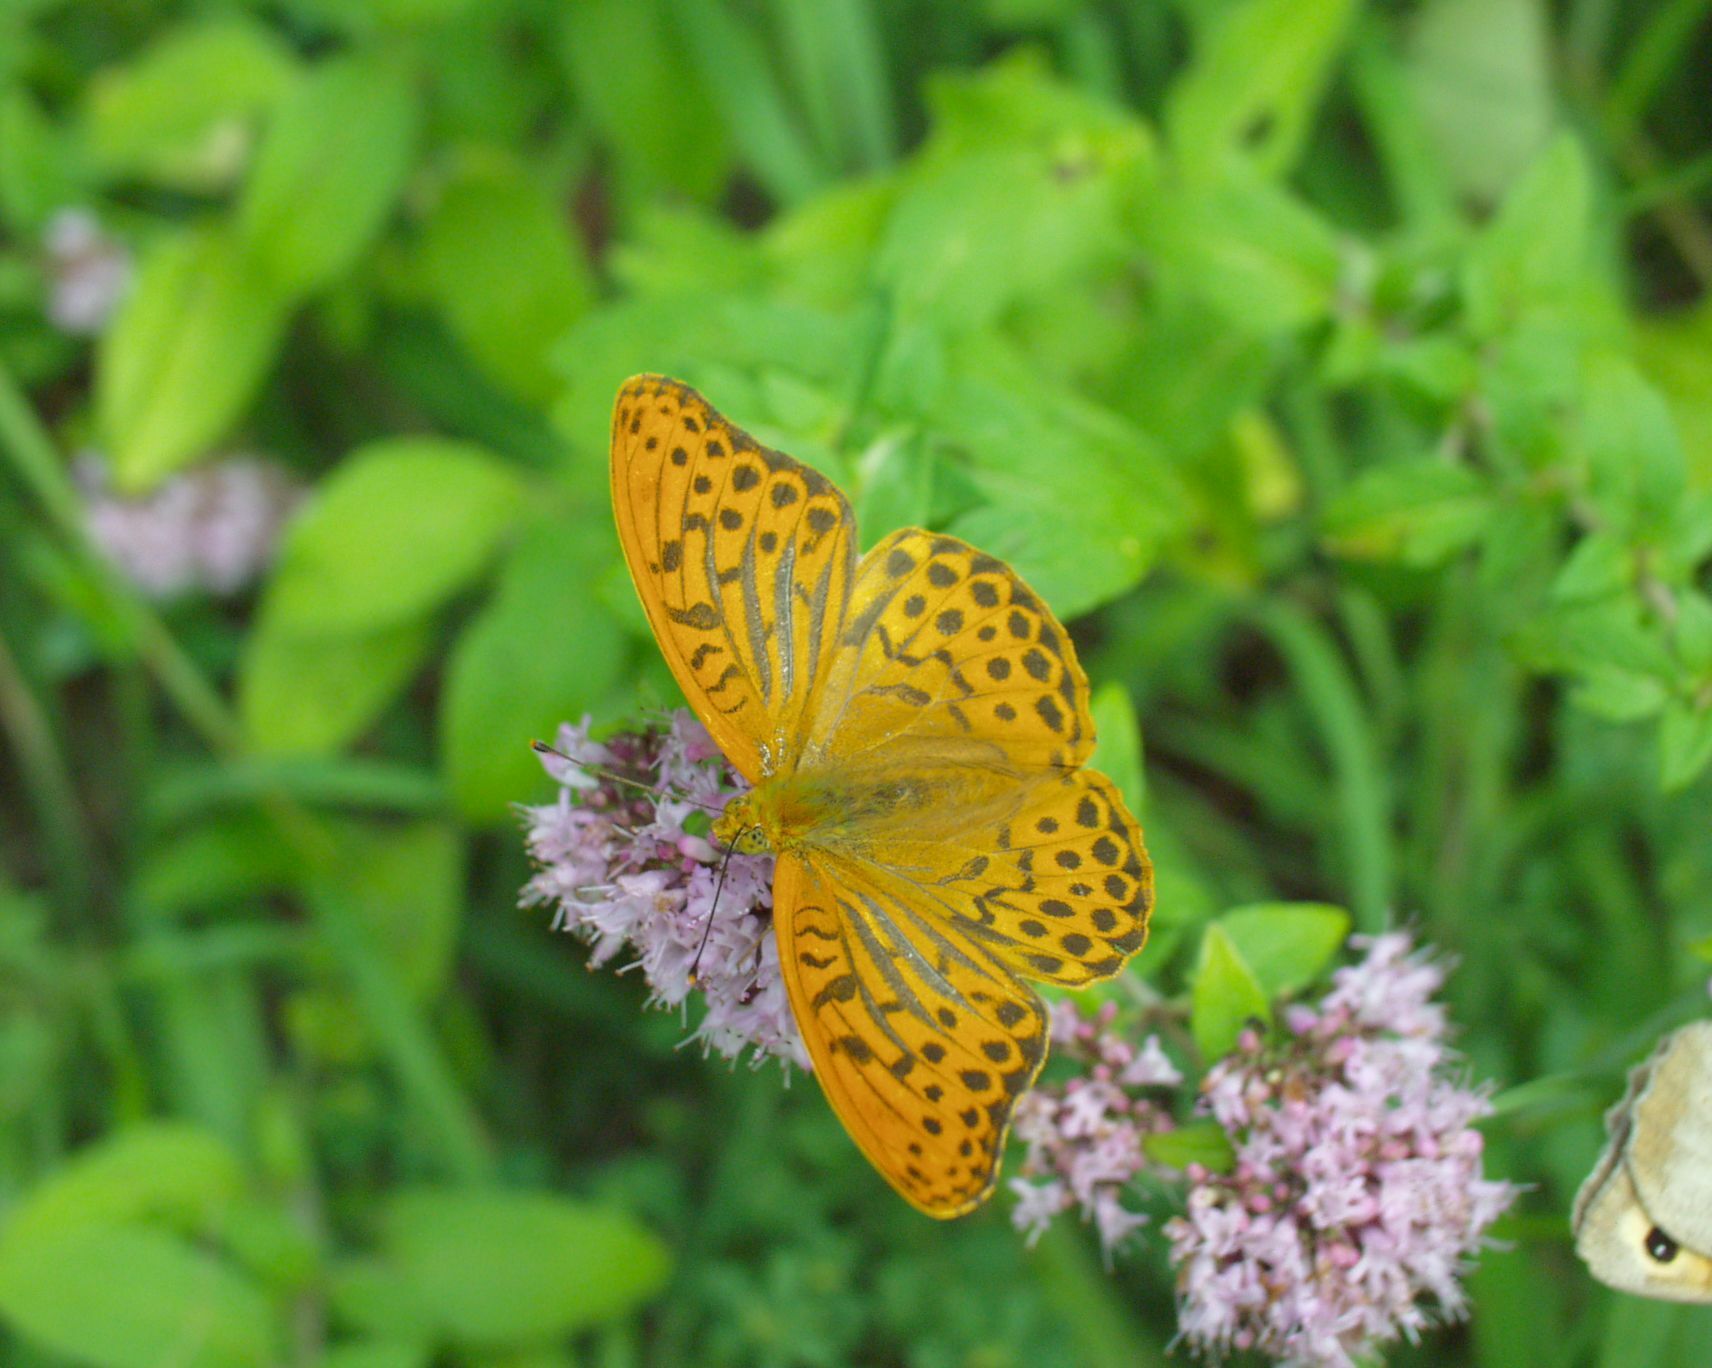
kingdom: Animalia
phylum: Arthropoda
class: Insecta
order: Lepidoptera
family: Nymphalidae
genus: Argynnis
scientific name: Argynnis paphia
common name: Silver-washed fritillary
